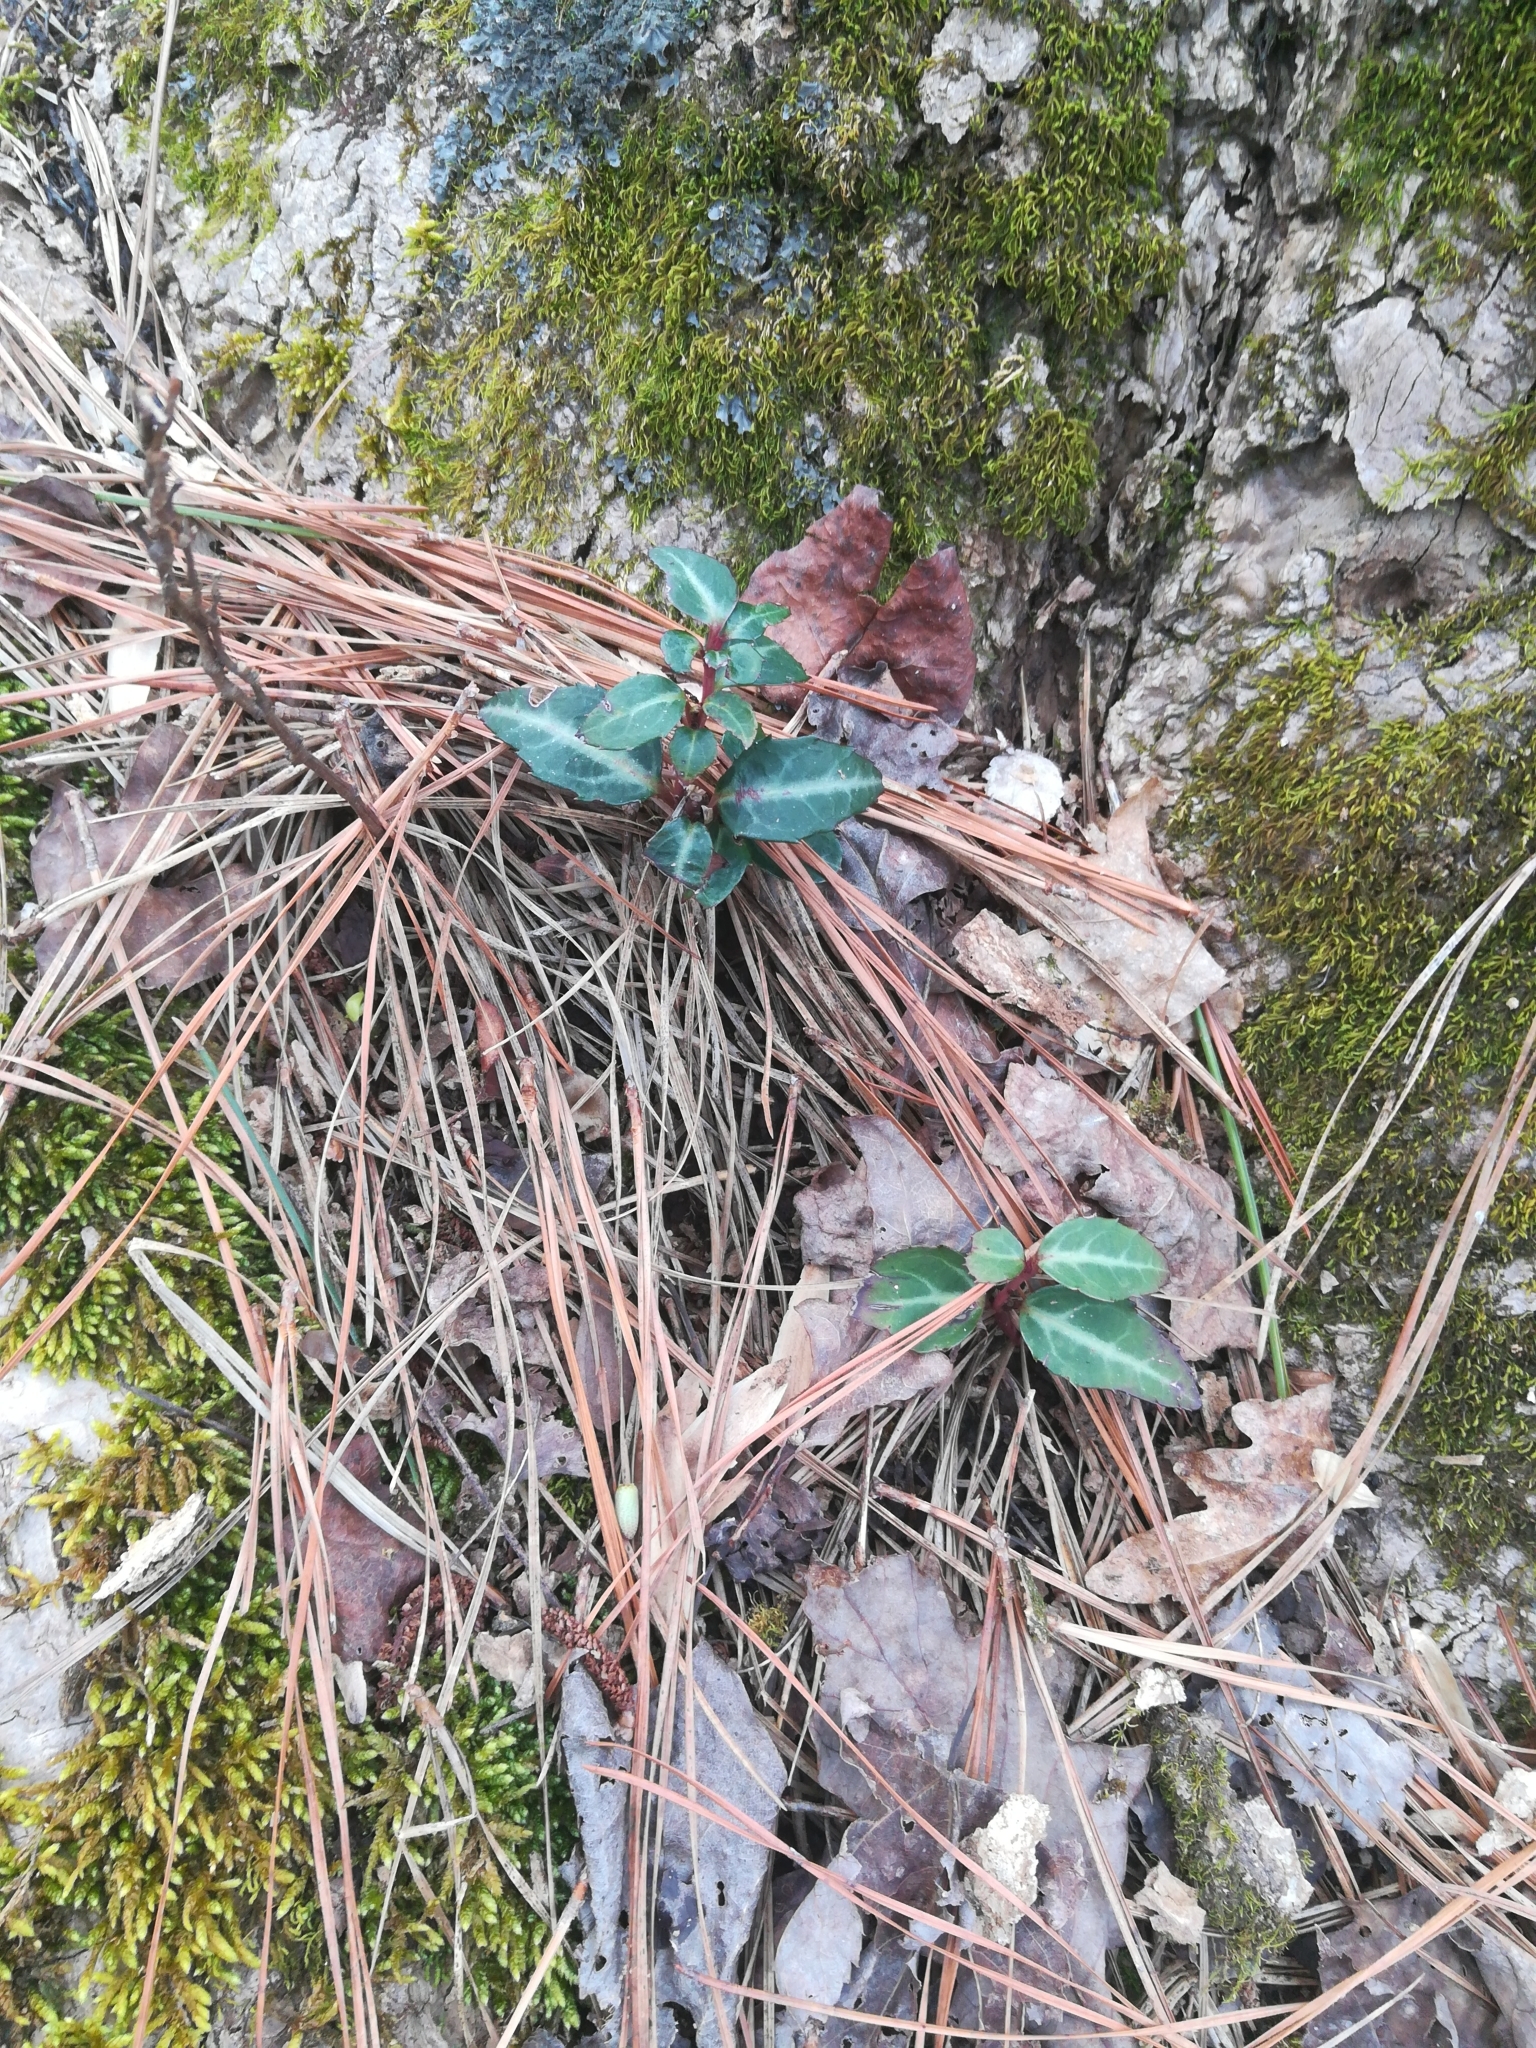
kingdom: Plantae
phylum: Tracheophyta
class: Magnoliopsida
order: Ericales
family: Ericaceae
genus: Chimaphila
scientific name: Chimaphila maculata
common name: Spotted pipsissewa
